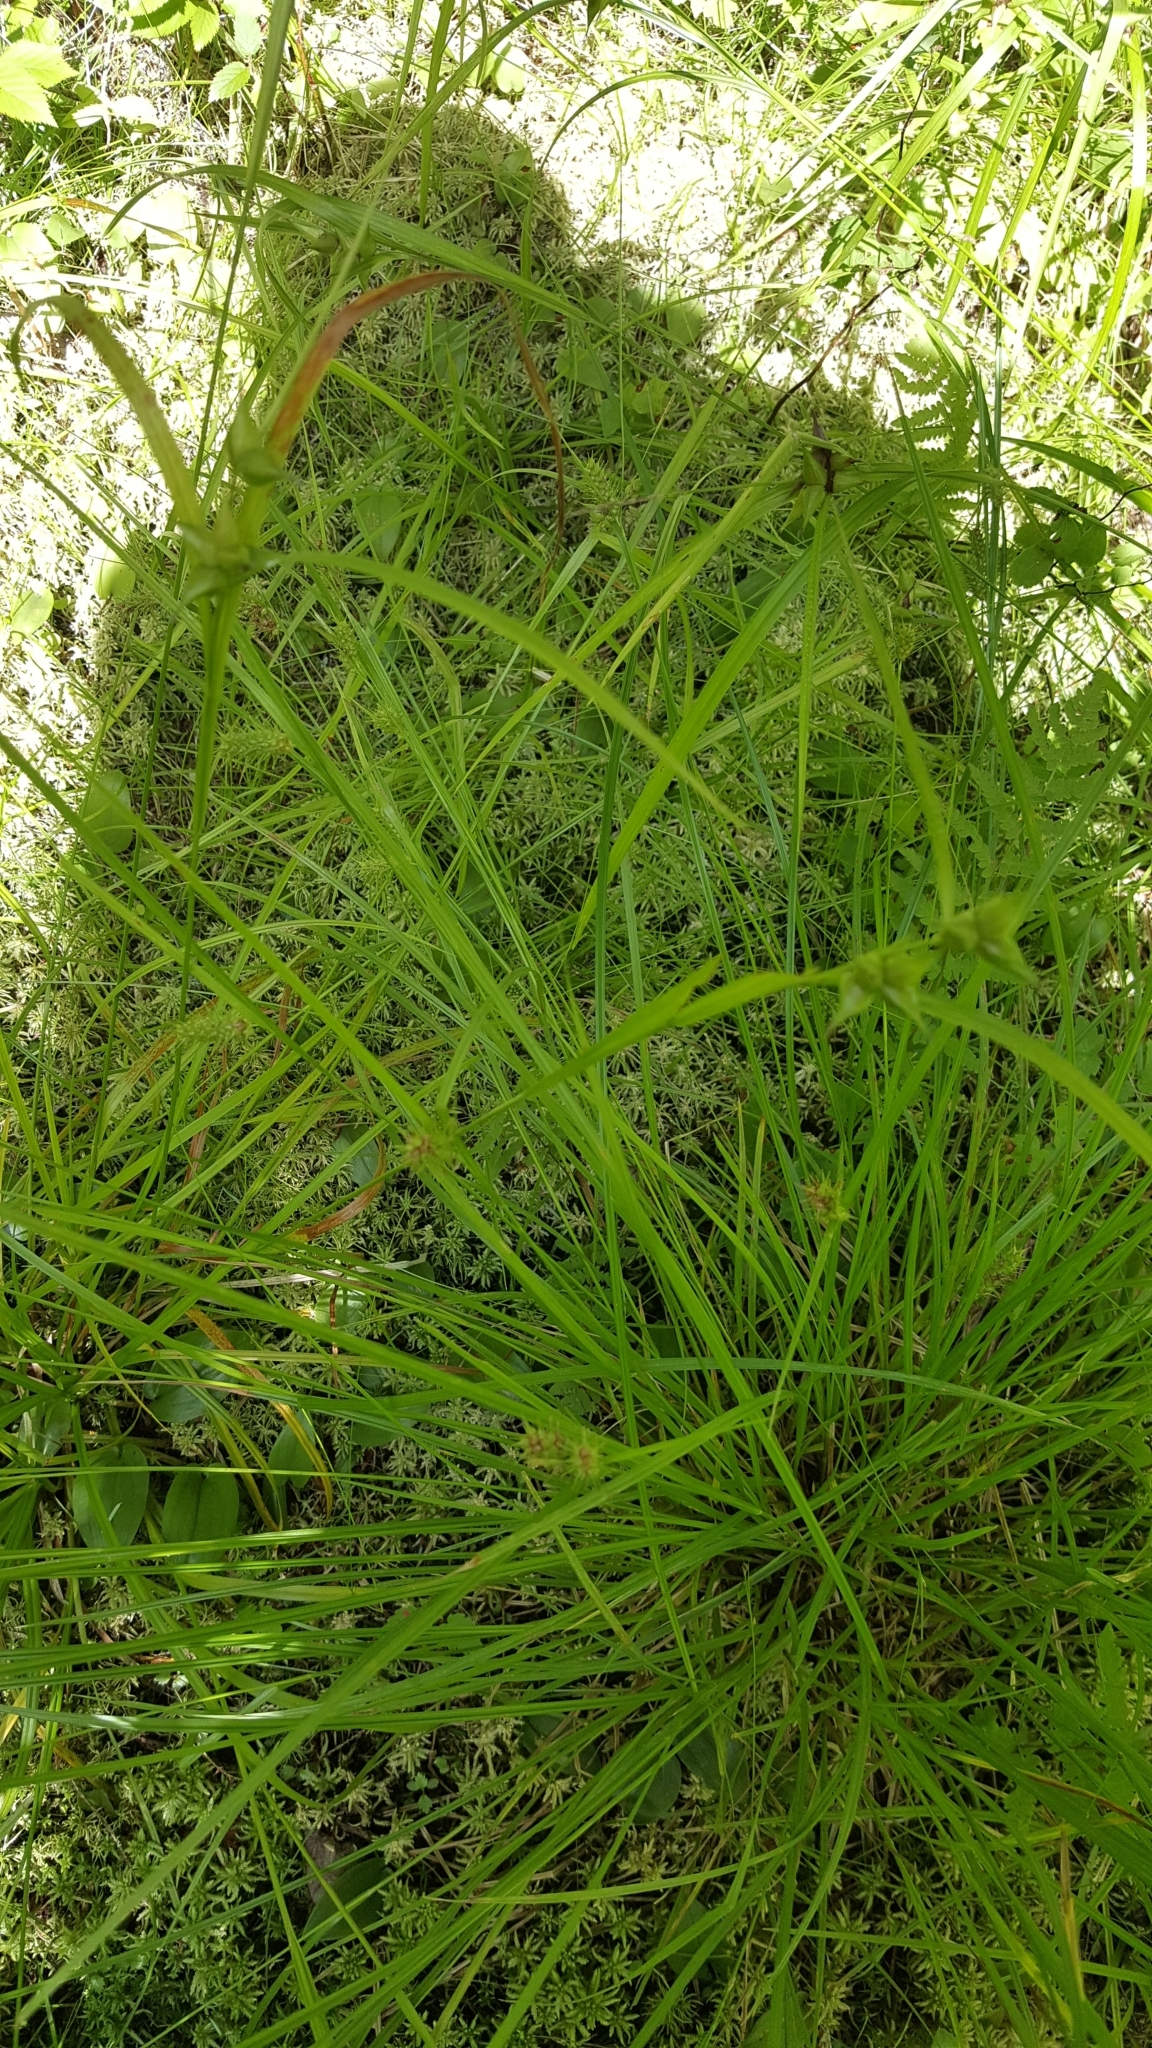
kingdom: Plantae
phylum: Tracheophyta
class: Liliopsida
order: Poales
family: Cyperaceae
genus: Carex
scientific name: Carex intumescens
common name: Greater bladder sedge
